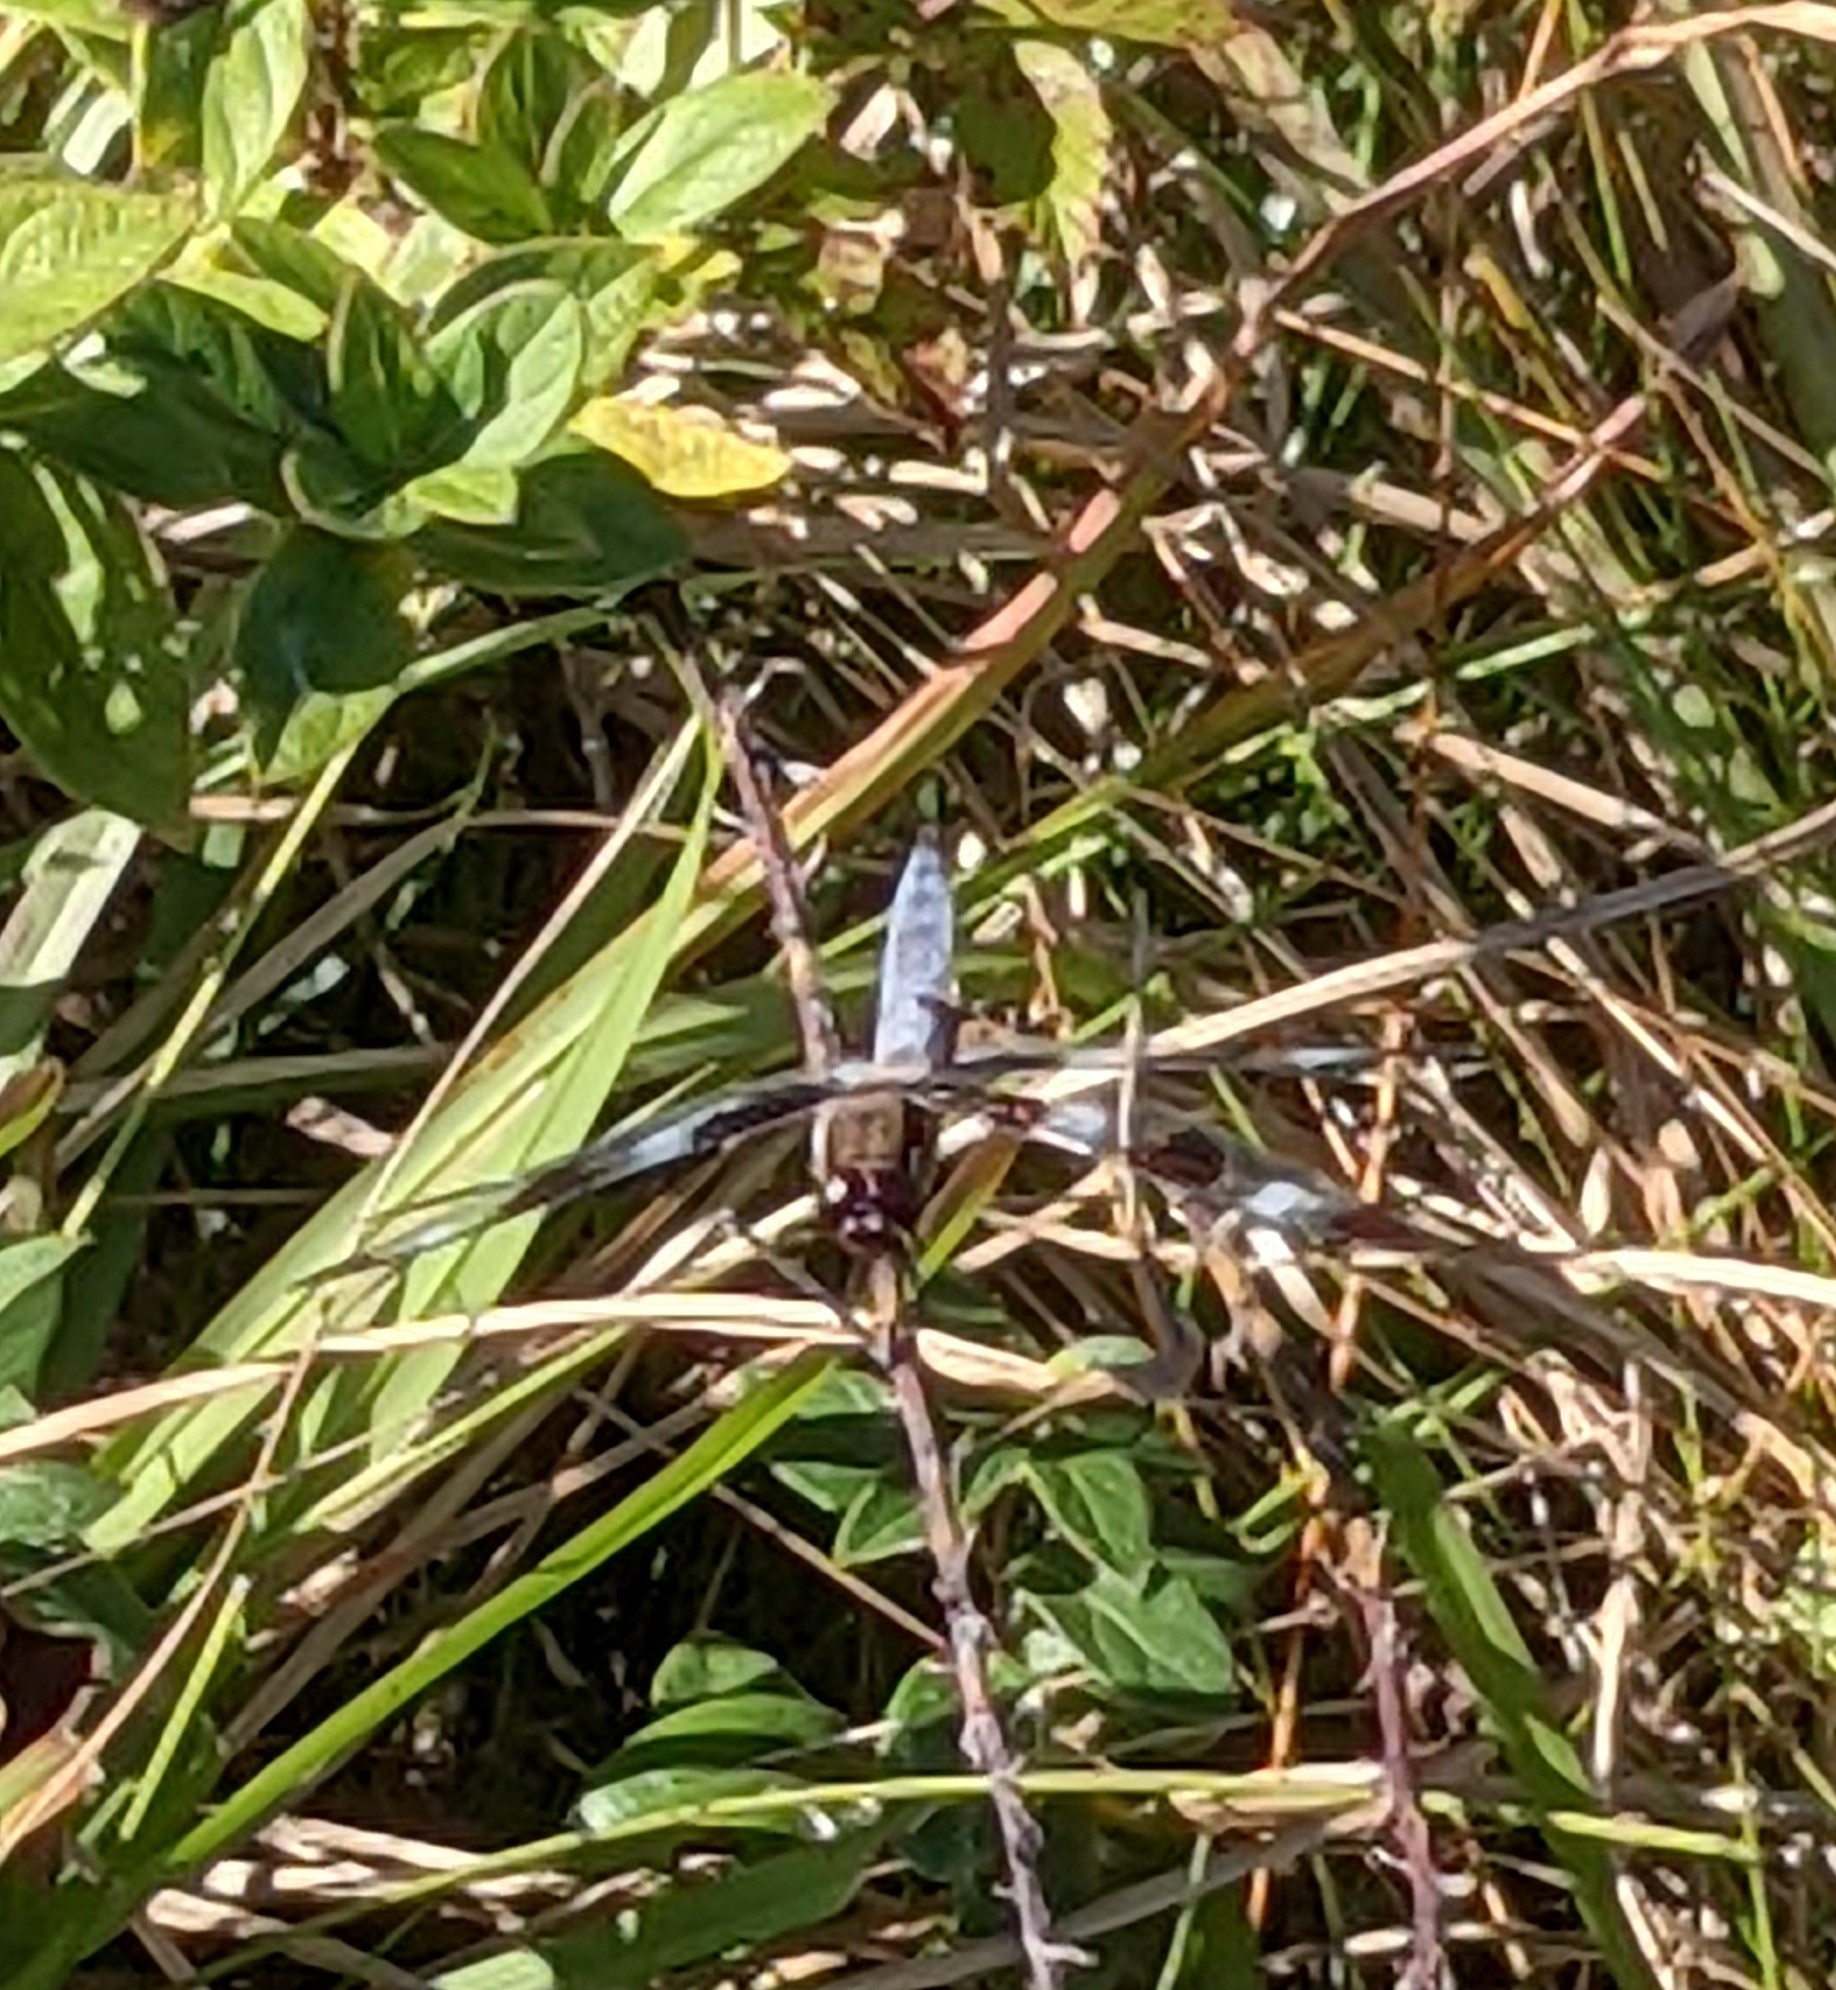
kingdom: Animalia
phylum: Arthropoda
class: Insecta
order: Odonata
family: Libellulidae
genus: Libellula
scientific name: Libellula pulchella
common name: Twelve-spotted skimmer
